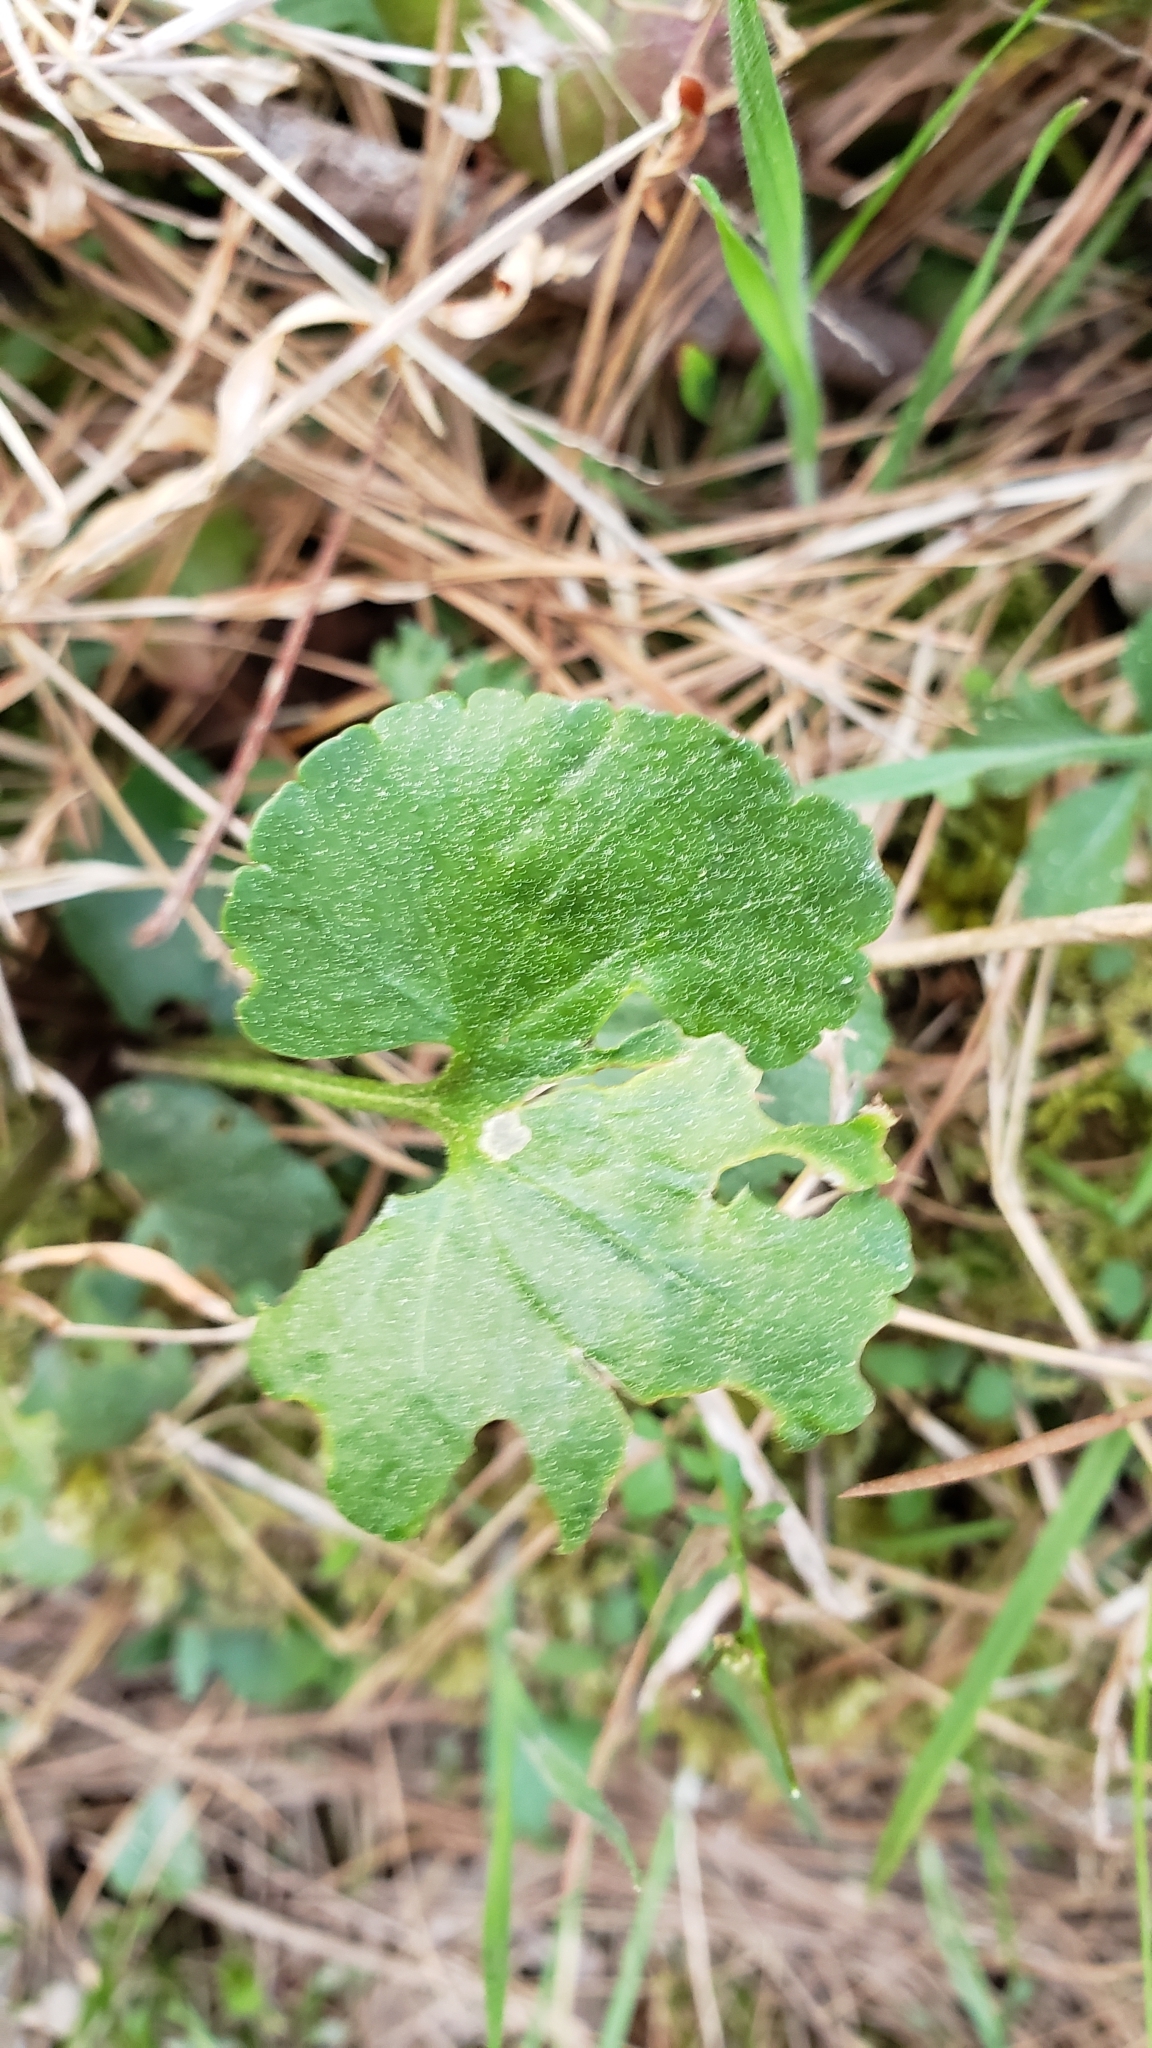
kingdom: Plantae
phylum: Tracheophyta
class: Magnoliopsida
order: Ranunculales
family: Ranunculaceae
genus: Ranunculus
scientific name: Ranunculus abortivus
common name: Early wood buttercup
